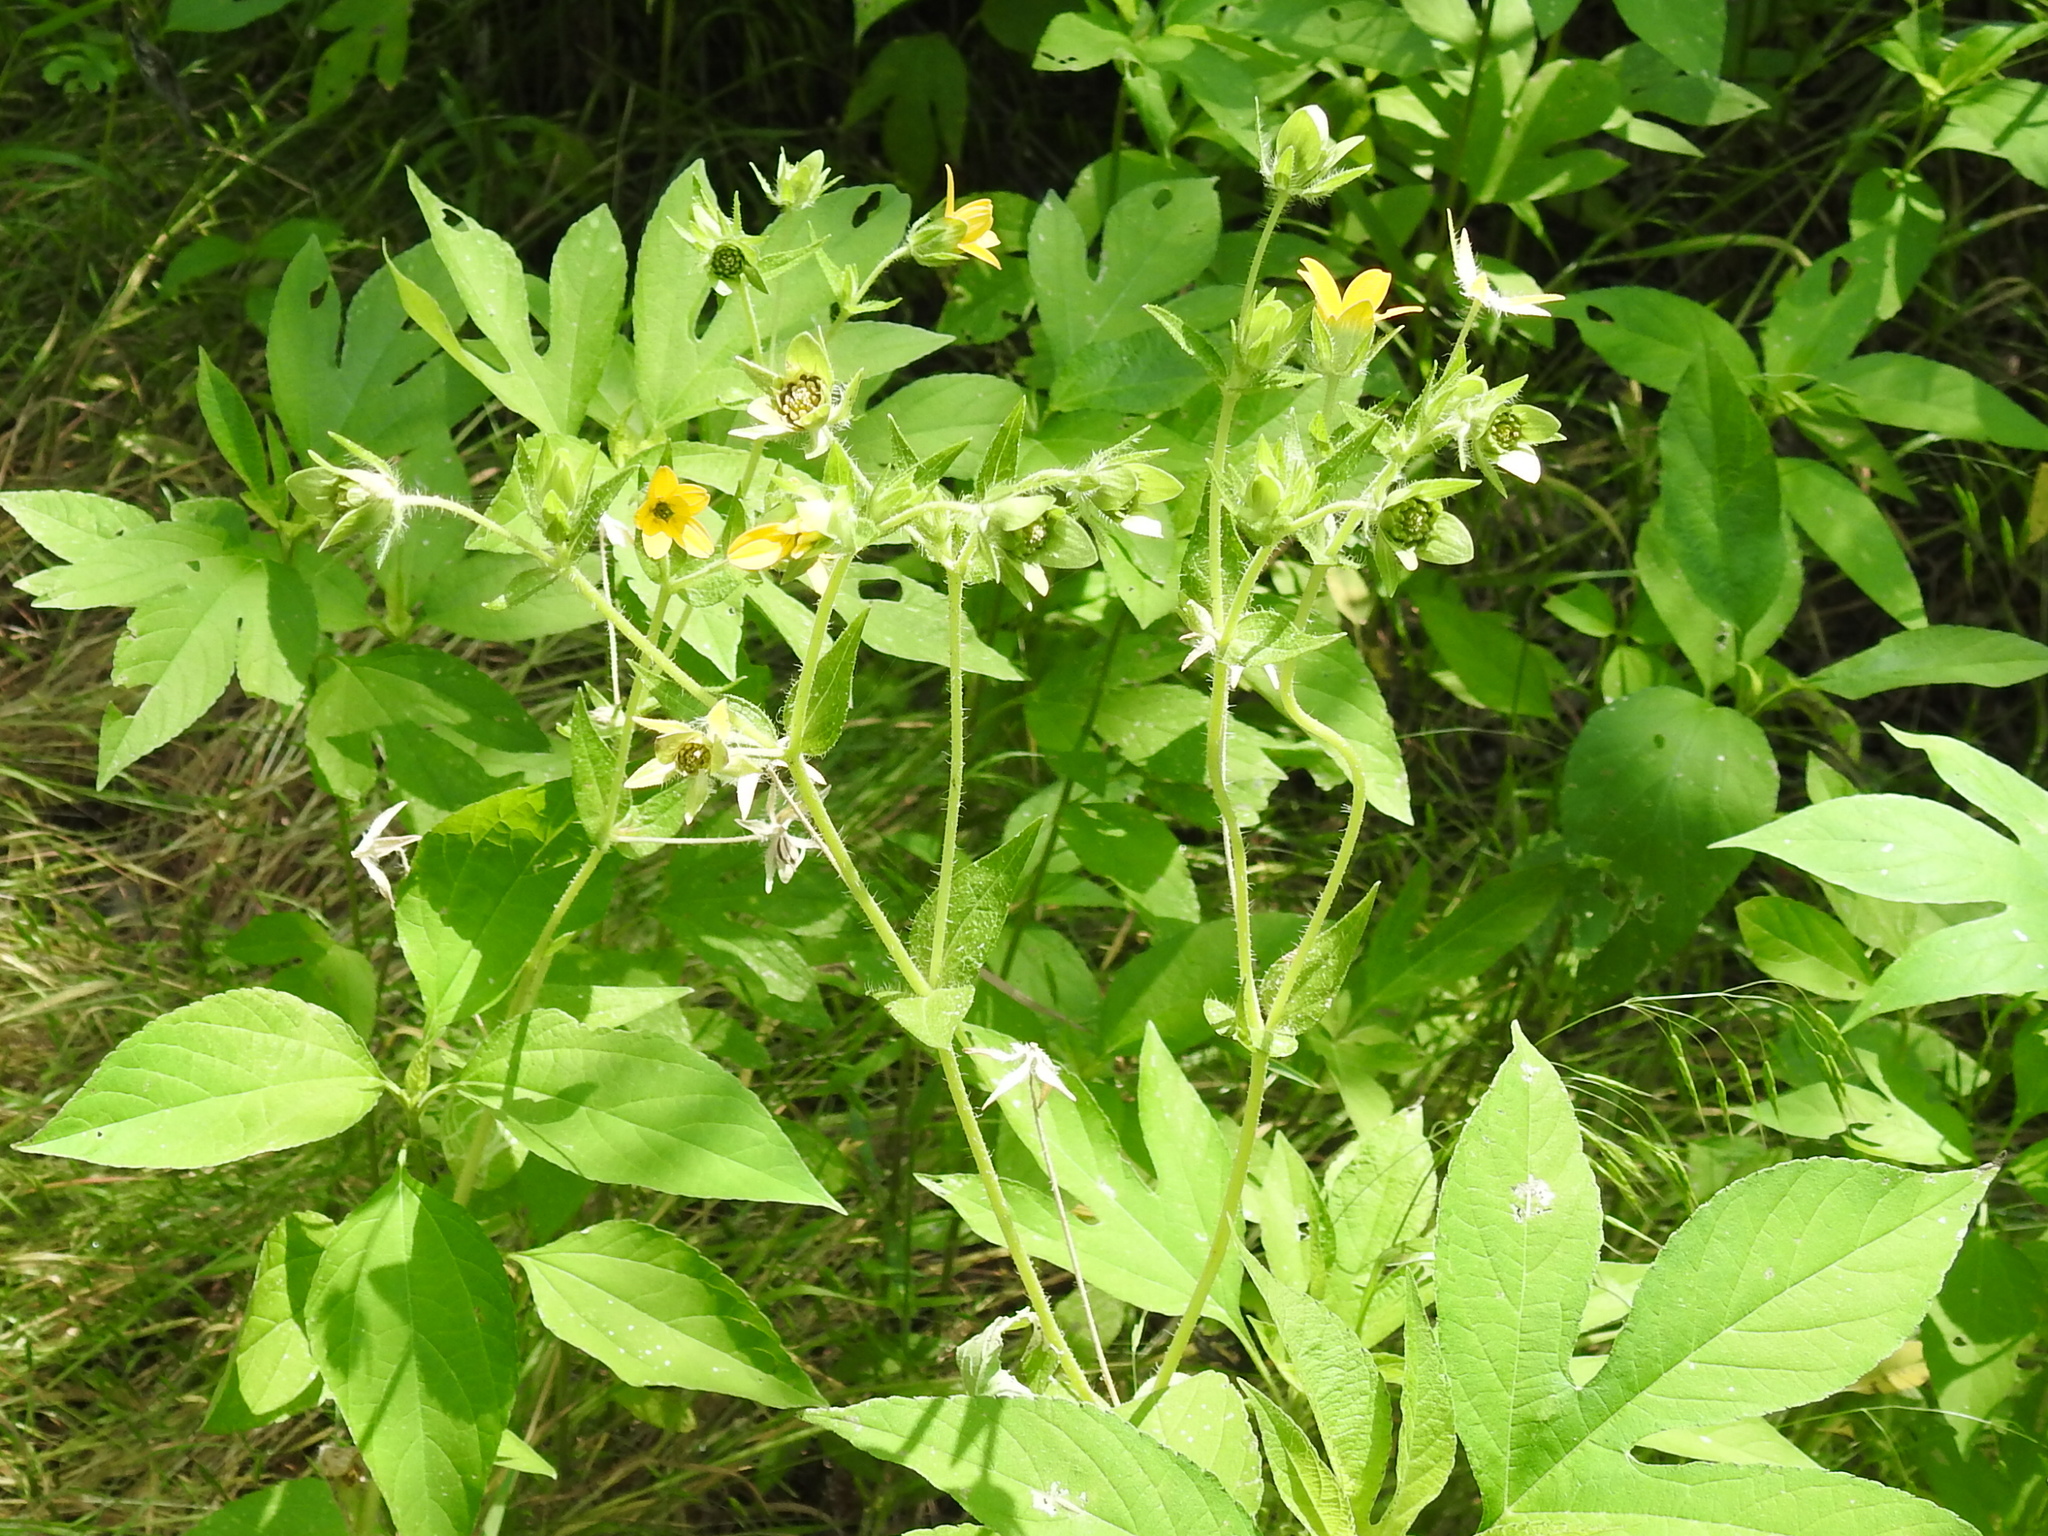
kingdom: Plantae
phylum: Tracheophyta
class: Magnoliopsida
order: Asterales
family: Asteraceae
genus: Lindheimera
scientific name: Lindheimera texana
